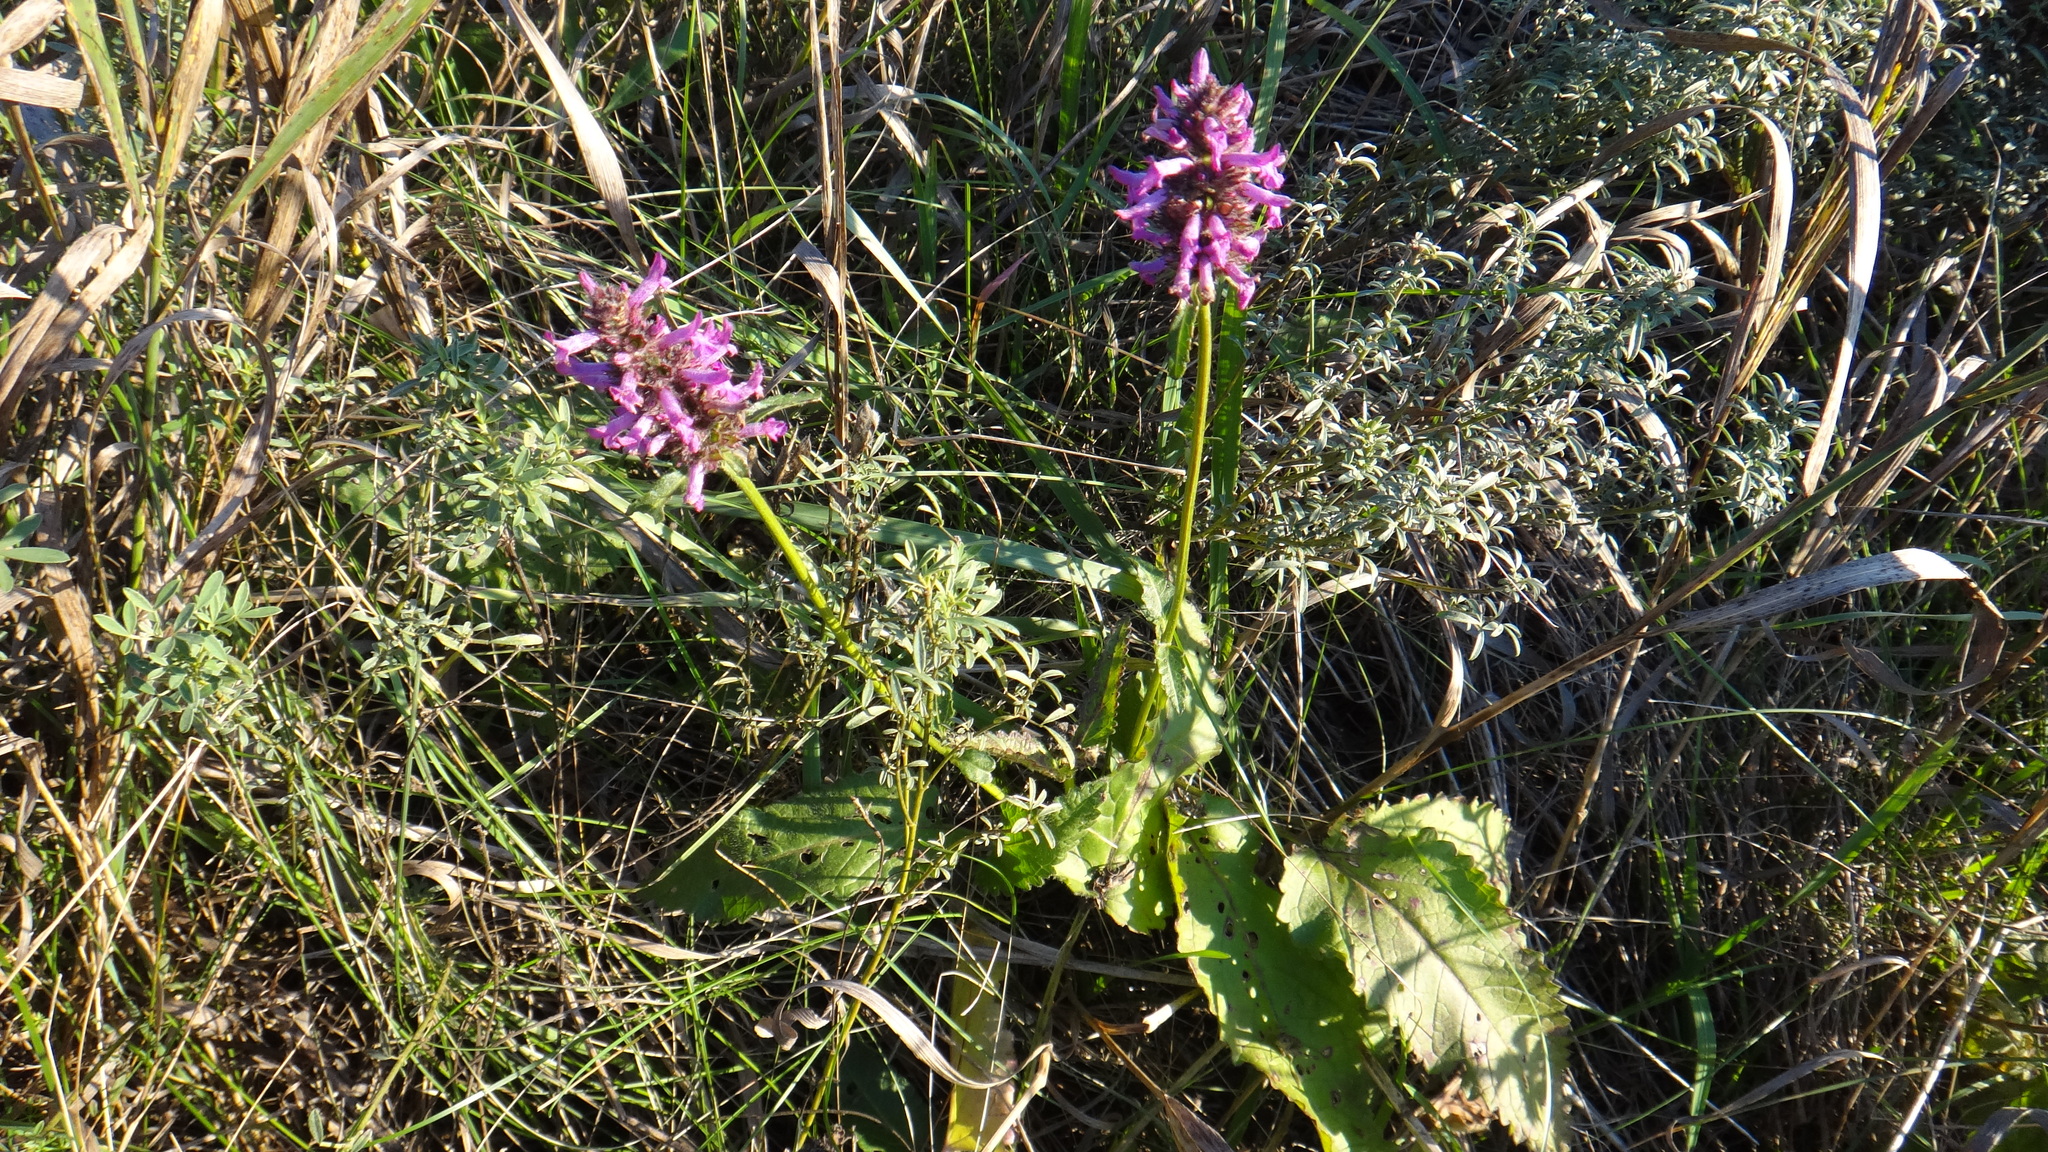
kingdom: Plantae
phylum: Tracheophyta
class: Magnoliopsida
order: Lamiales
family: Lamiaceae
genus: Betonica
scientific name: Betonica officinalis
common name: Bishop's-wort
